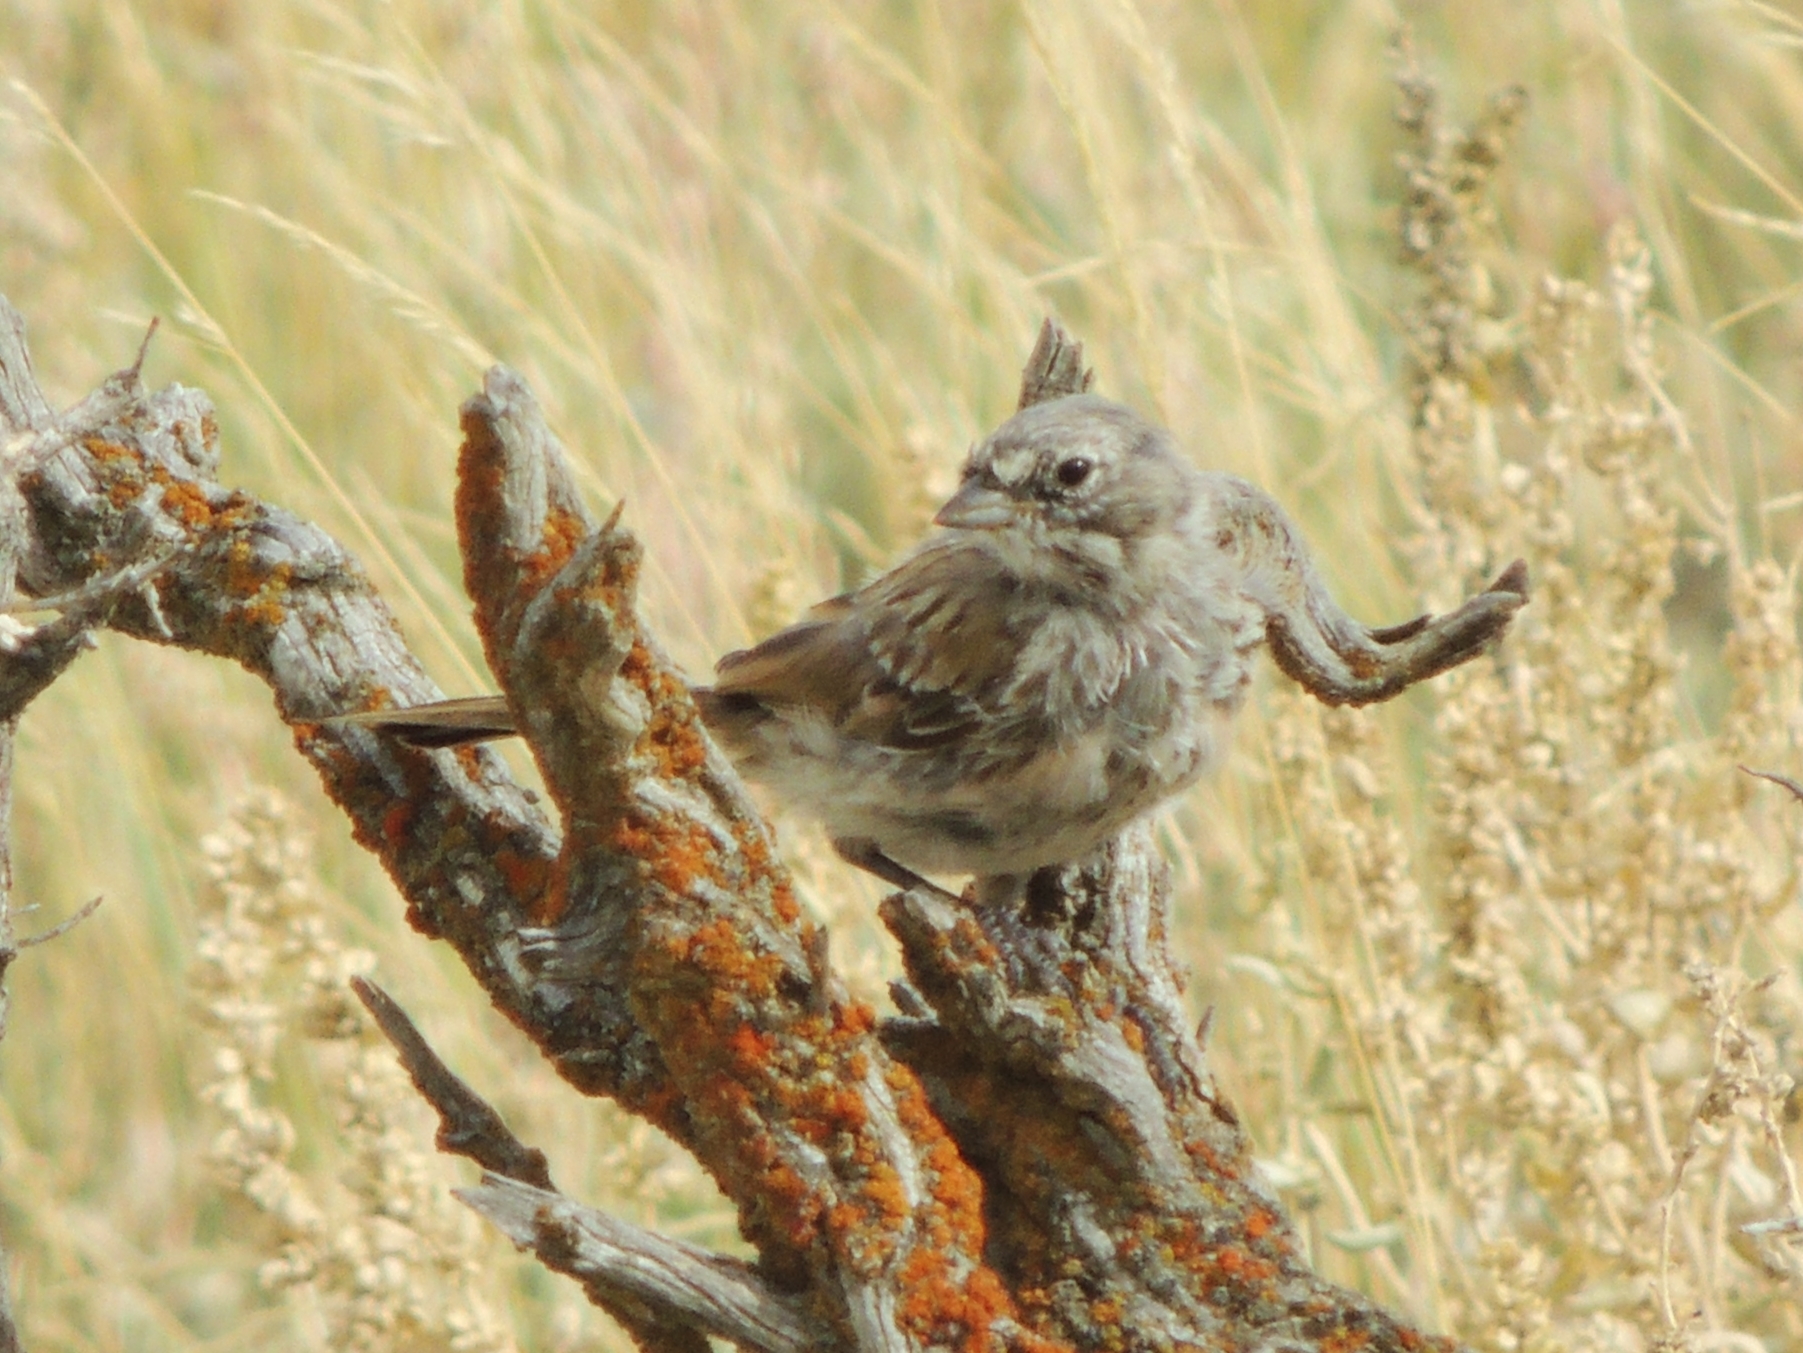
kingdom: Animalia
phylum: Chordata
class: Aves
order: Passeriformes
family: Passerellidae
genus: Artemisiospiza
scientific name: Artemisiospiza nevadensis
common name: Sagebrush sparrow
